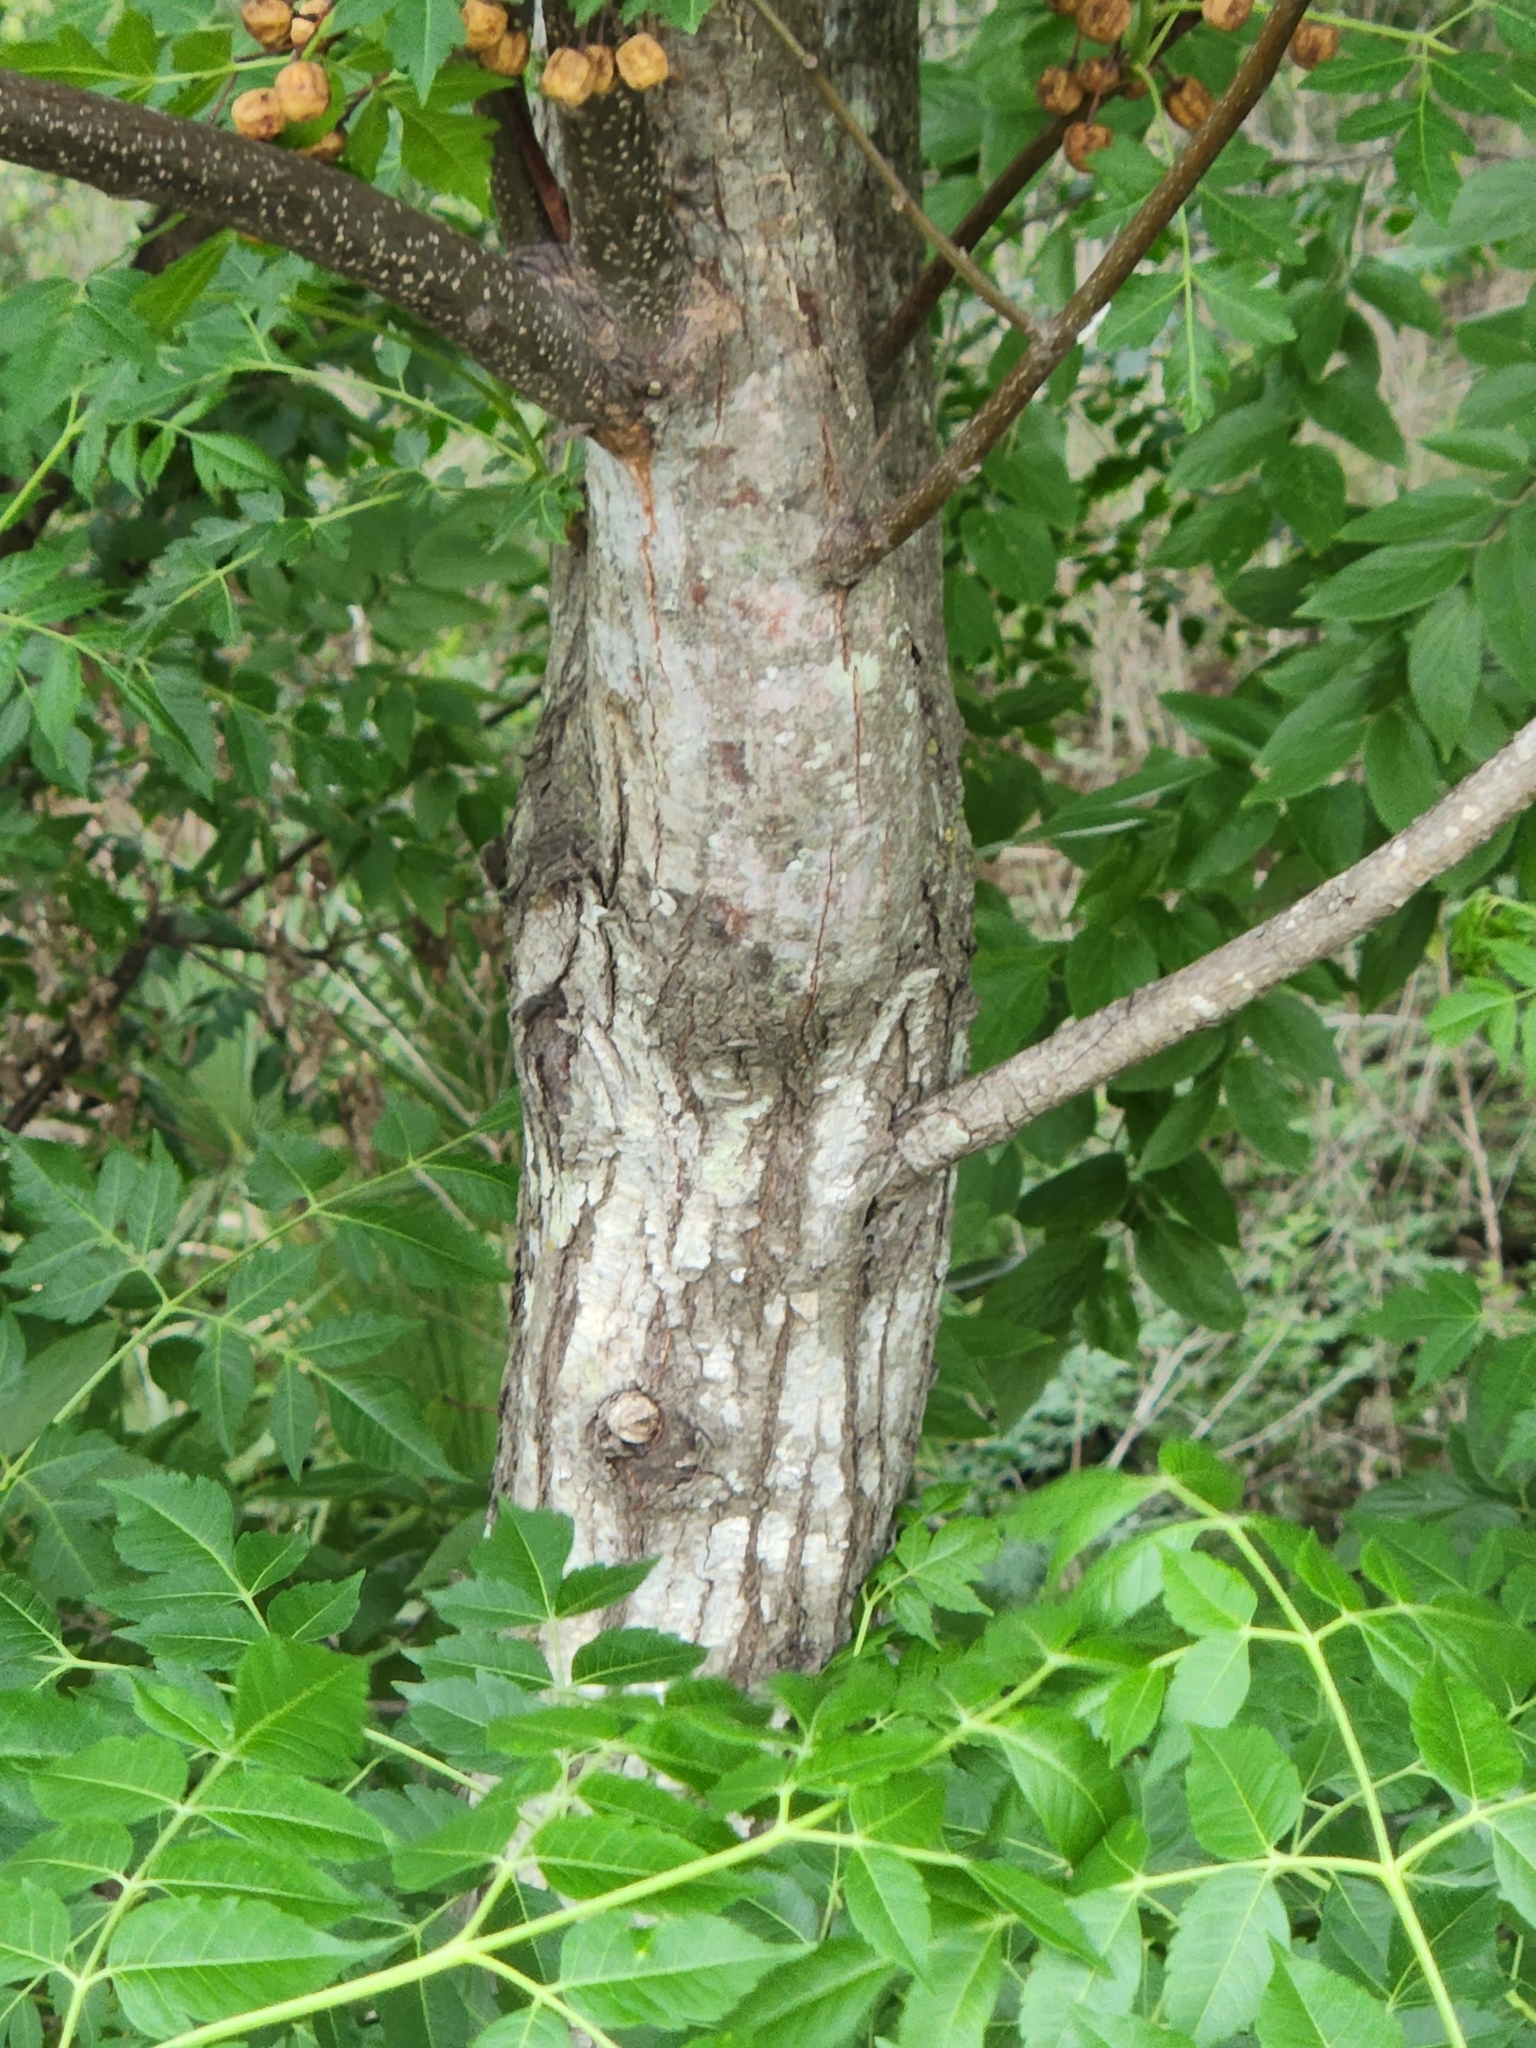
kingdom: Plantae
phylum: Tracheophyta
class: Magnoliopsida
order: Sapindales
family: Meliaceae
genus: Melia
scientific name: Melia azedarach
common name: Chinaberrytree
